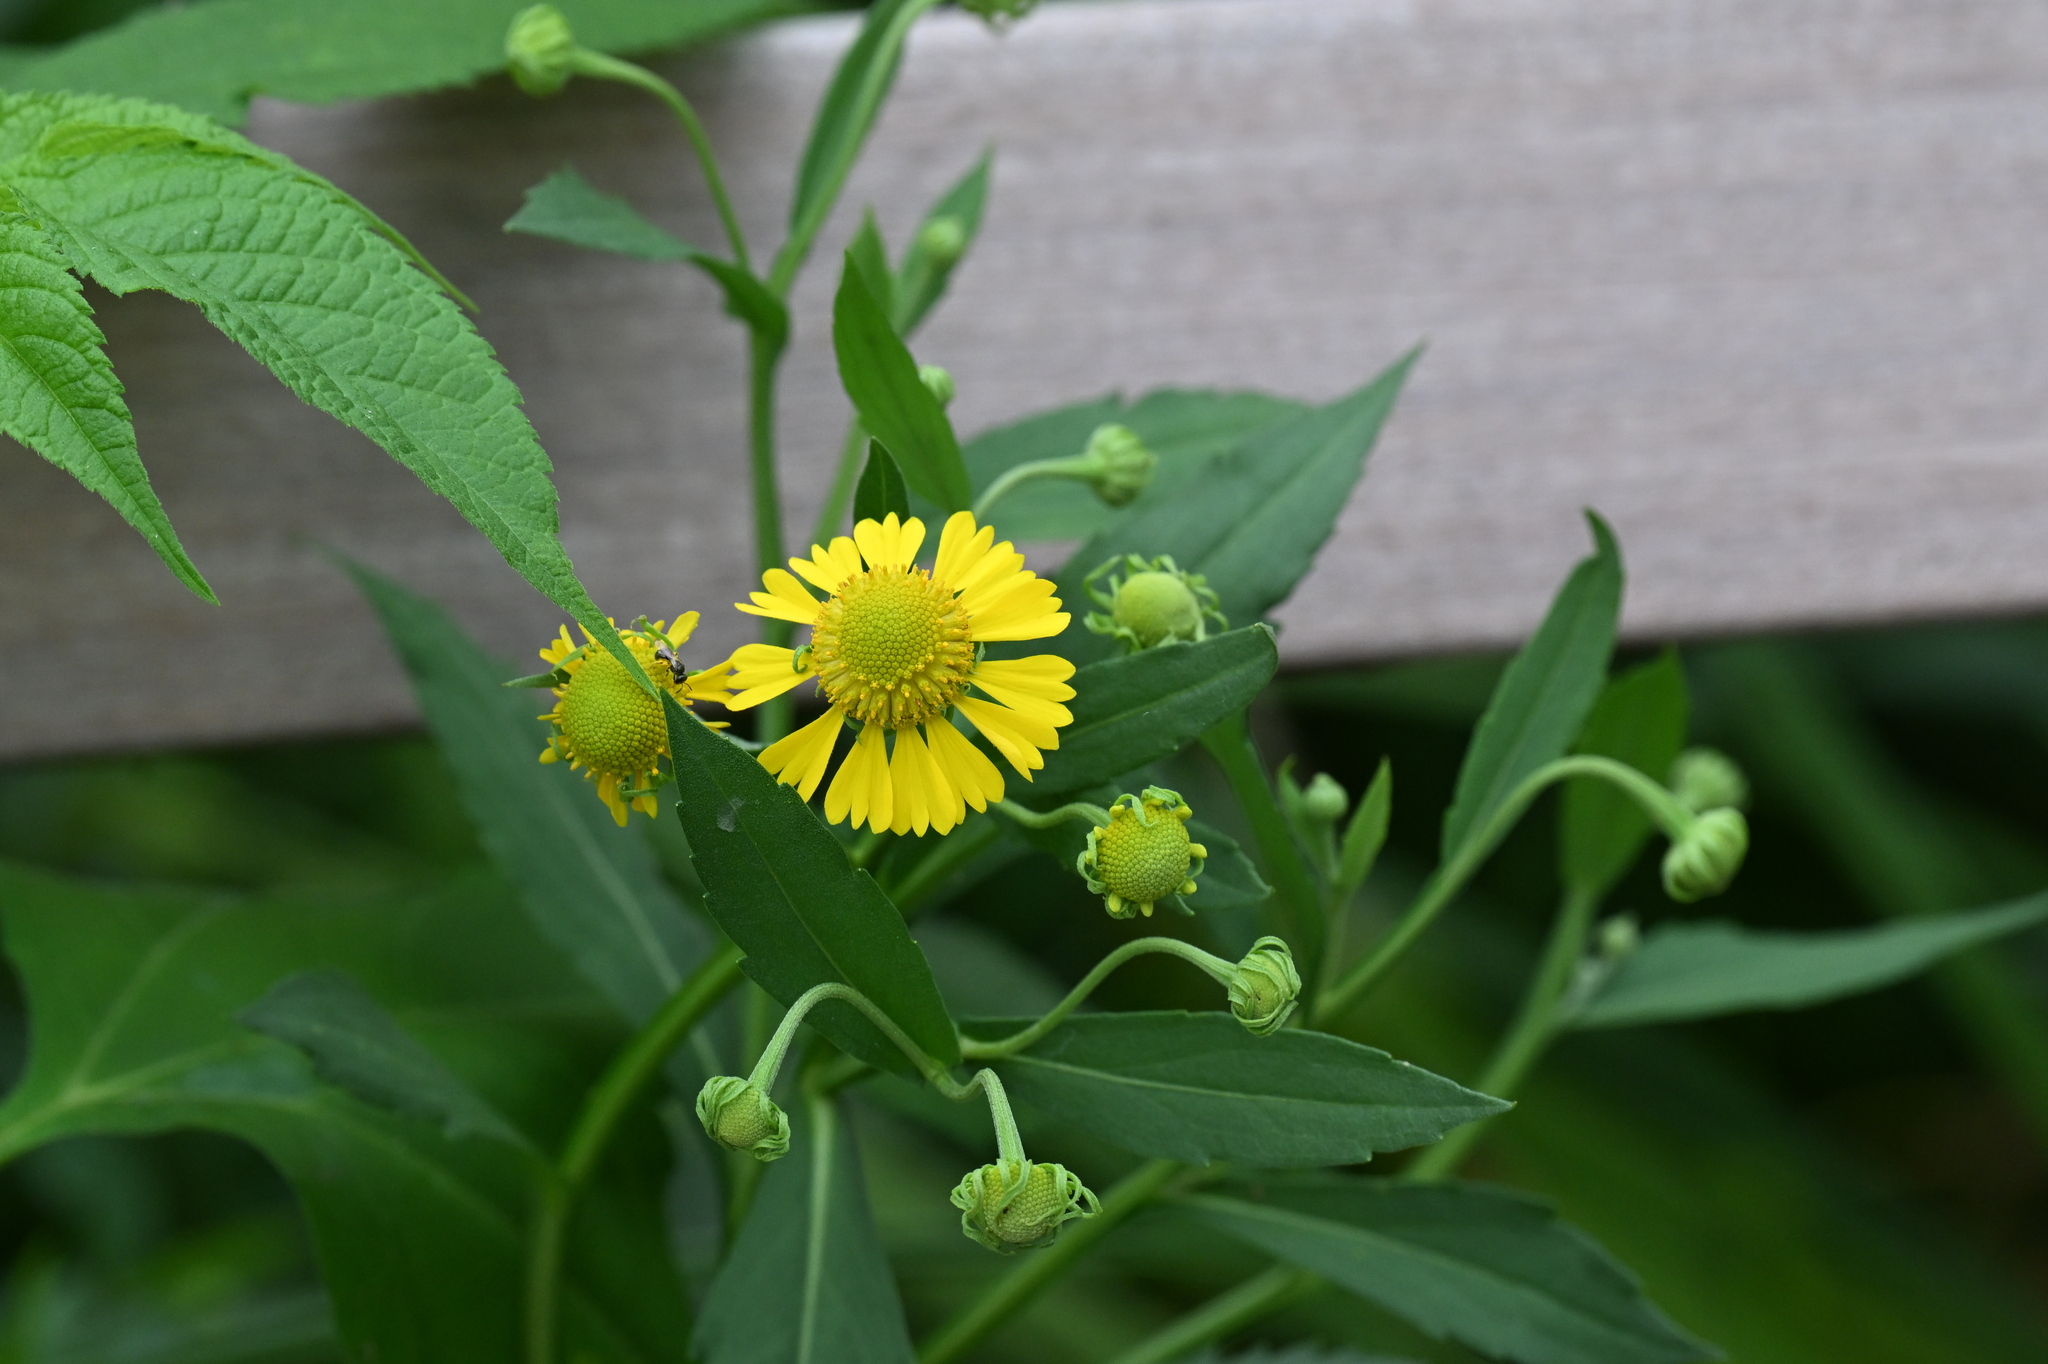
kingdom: Plantae
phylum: Tracheophyta
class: Magnoliopsida
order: Asterales
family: Asteraceae
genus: Helenium
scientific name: Helenium autumnale
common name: Sneezeweed
